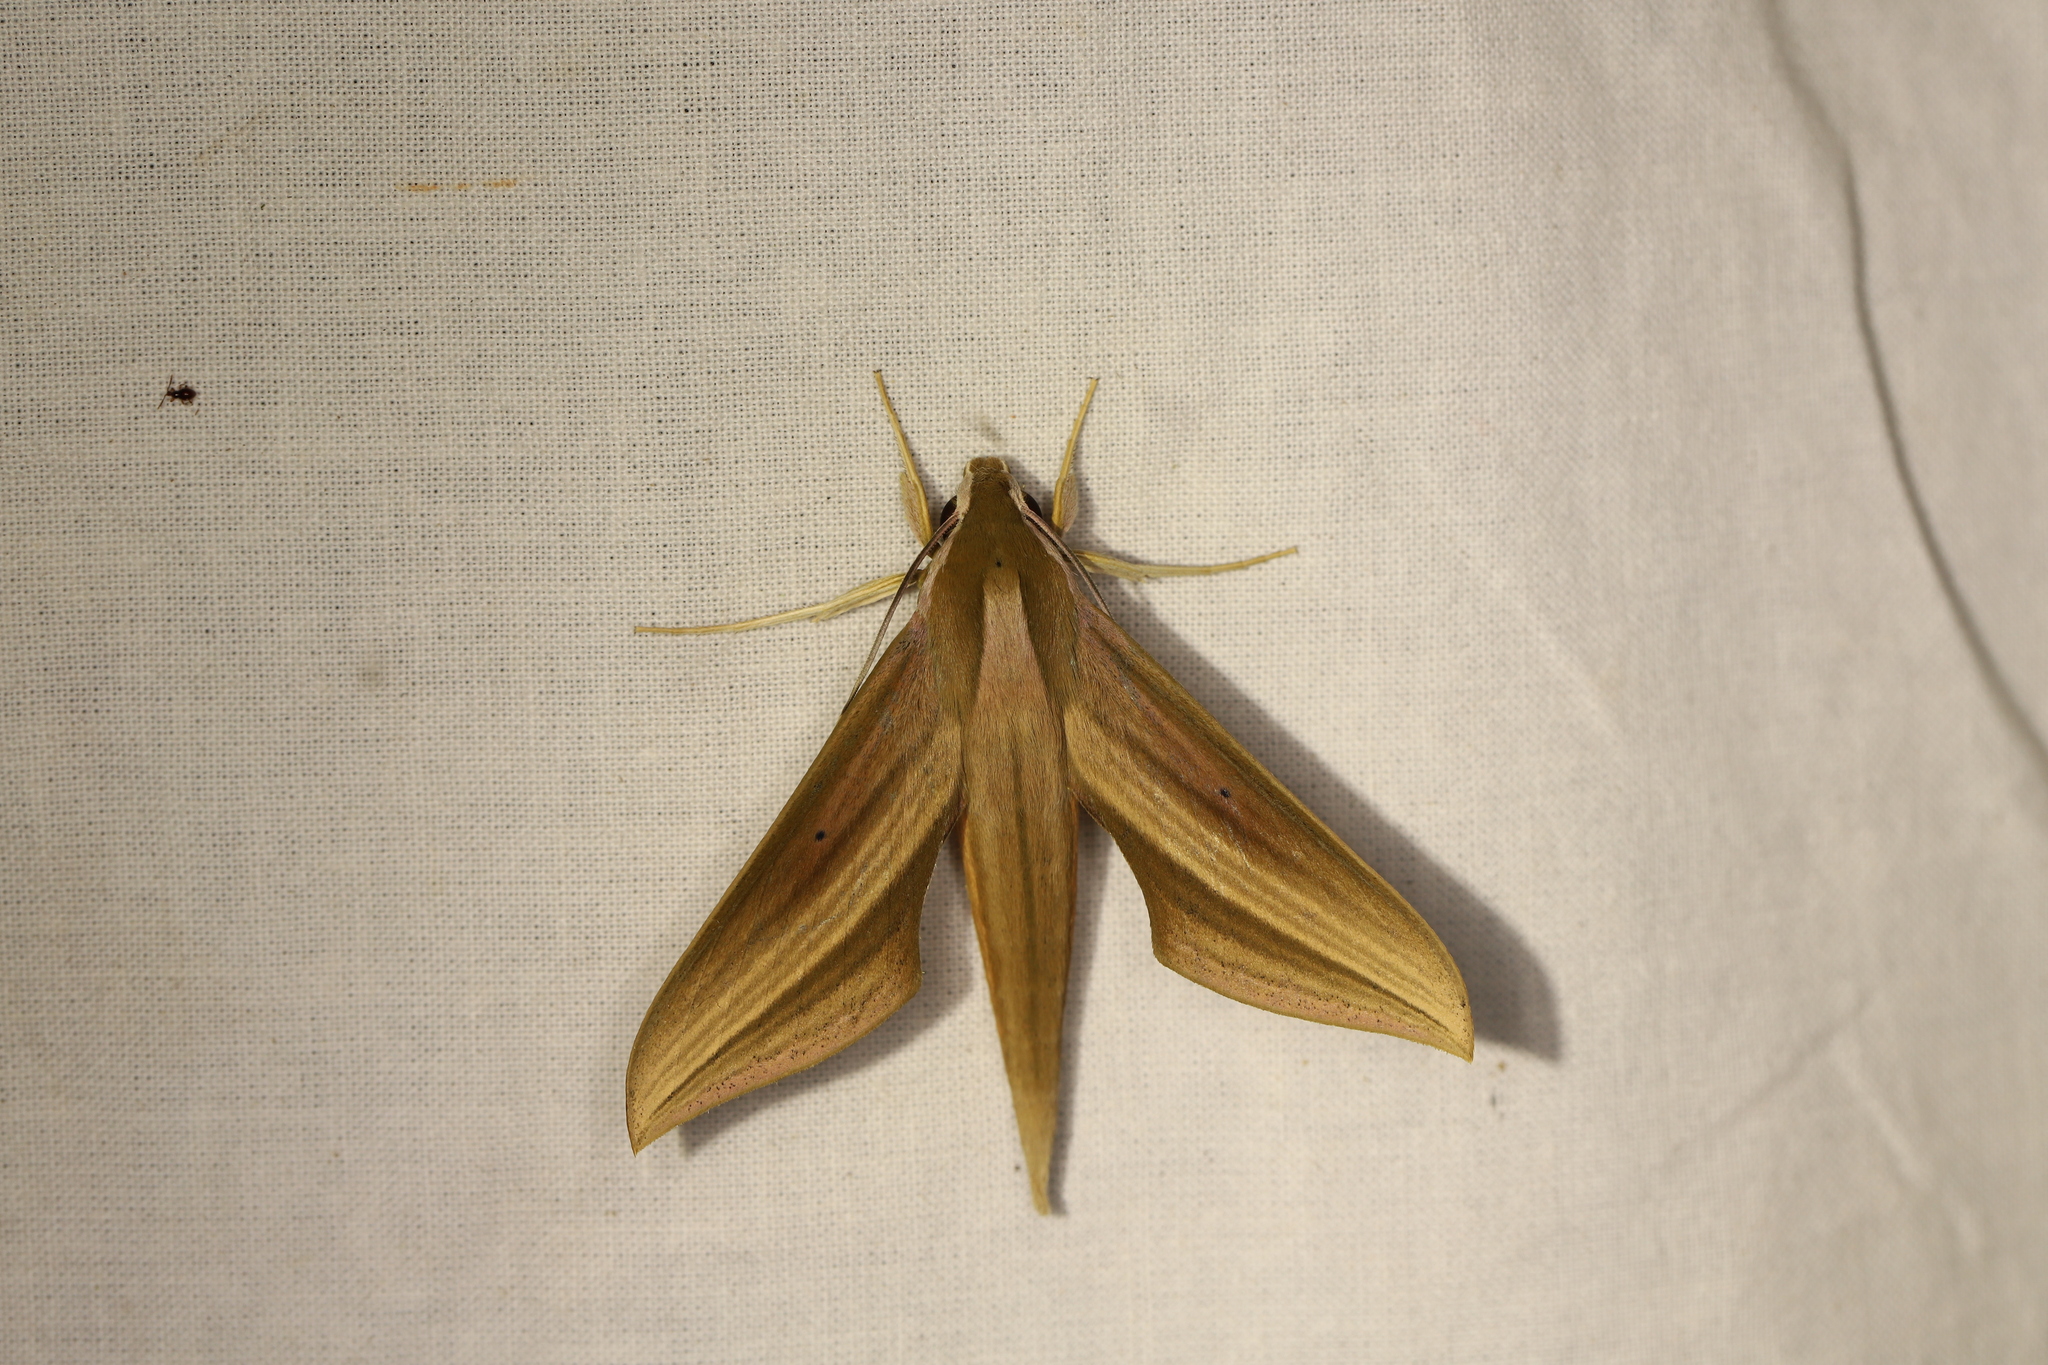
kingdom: Animalia
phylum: Arthropoda
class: Insecta
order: Lepidoptera
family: Sphingidae
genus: Xylophanes
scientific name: Xylophanes loelia
